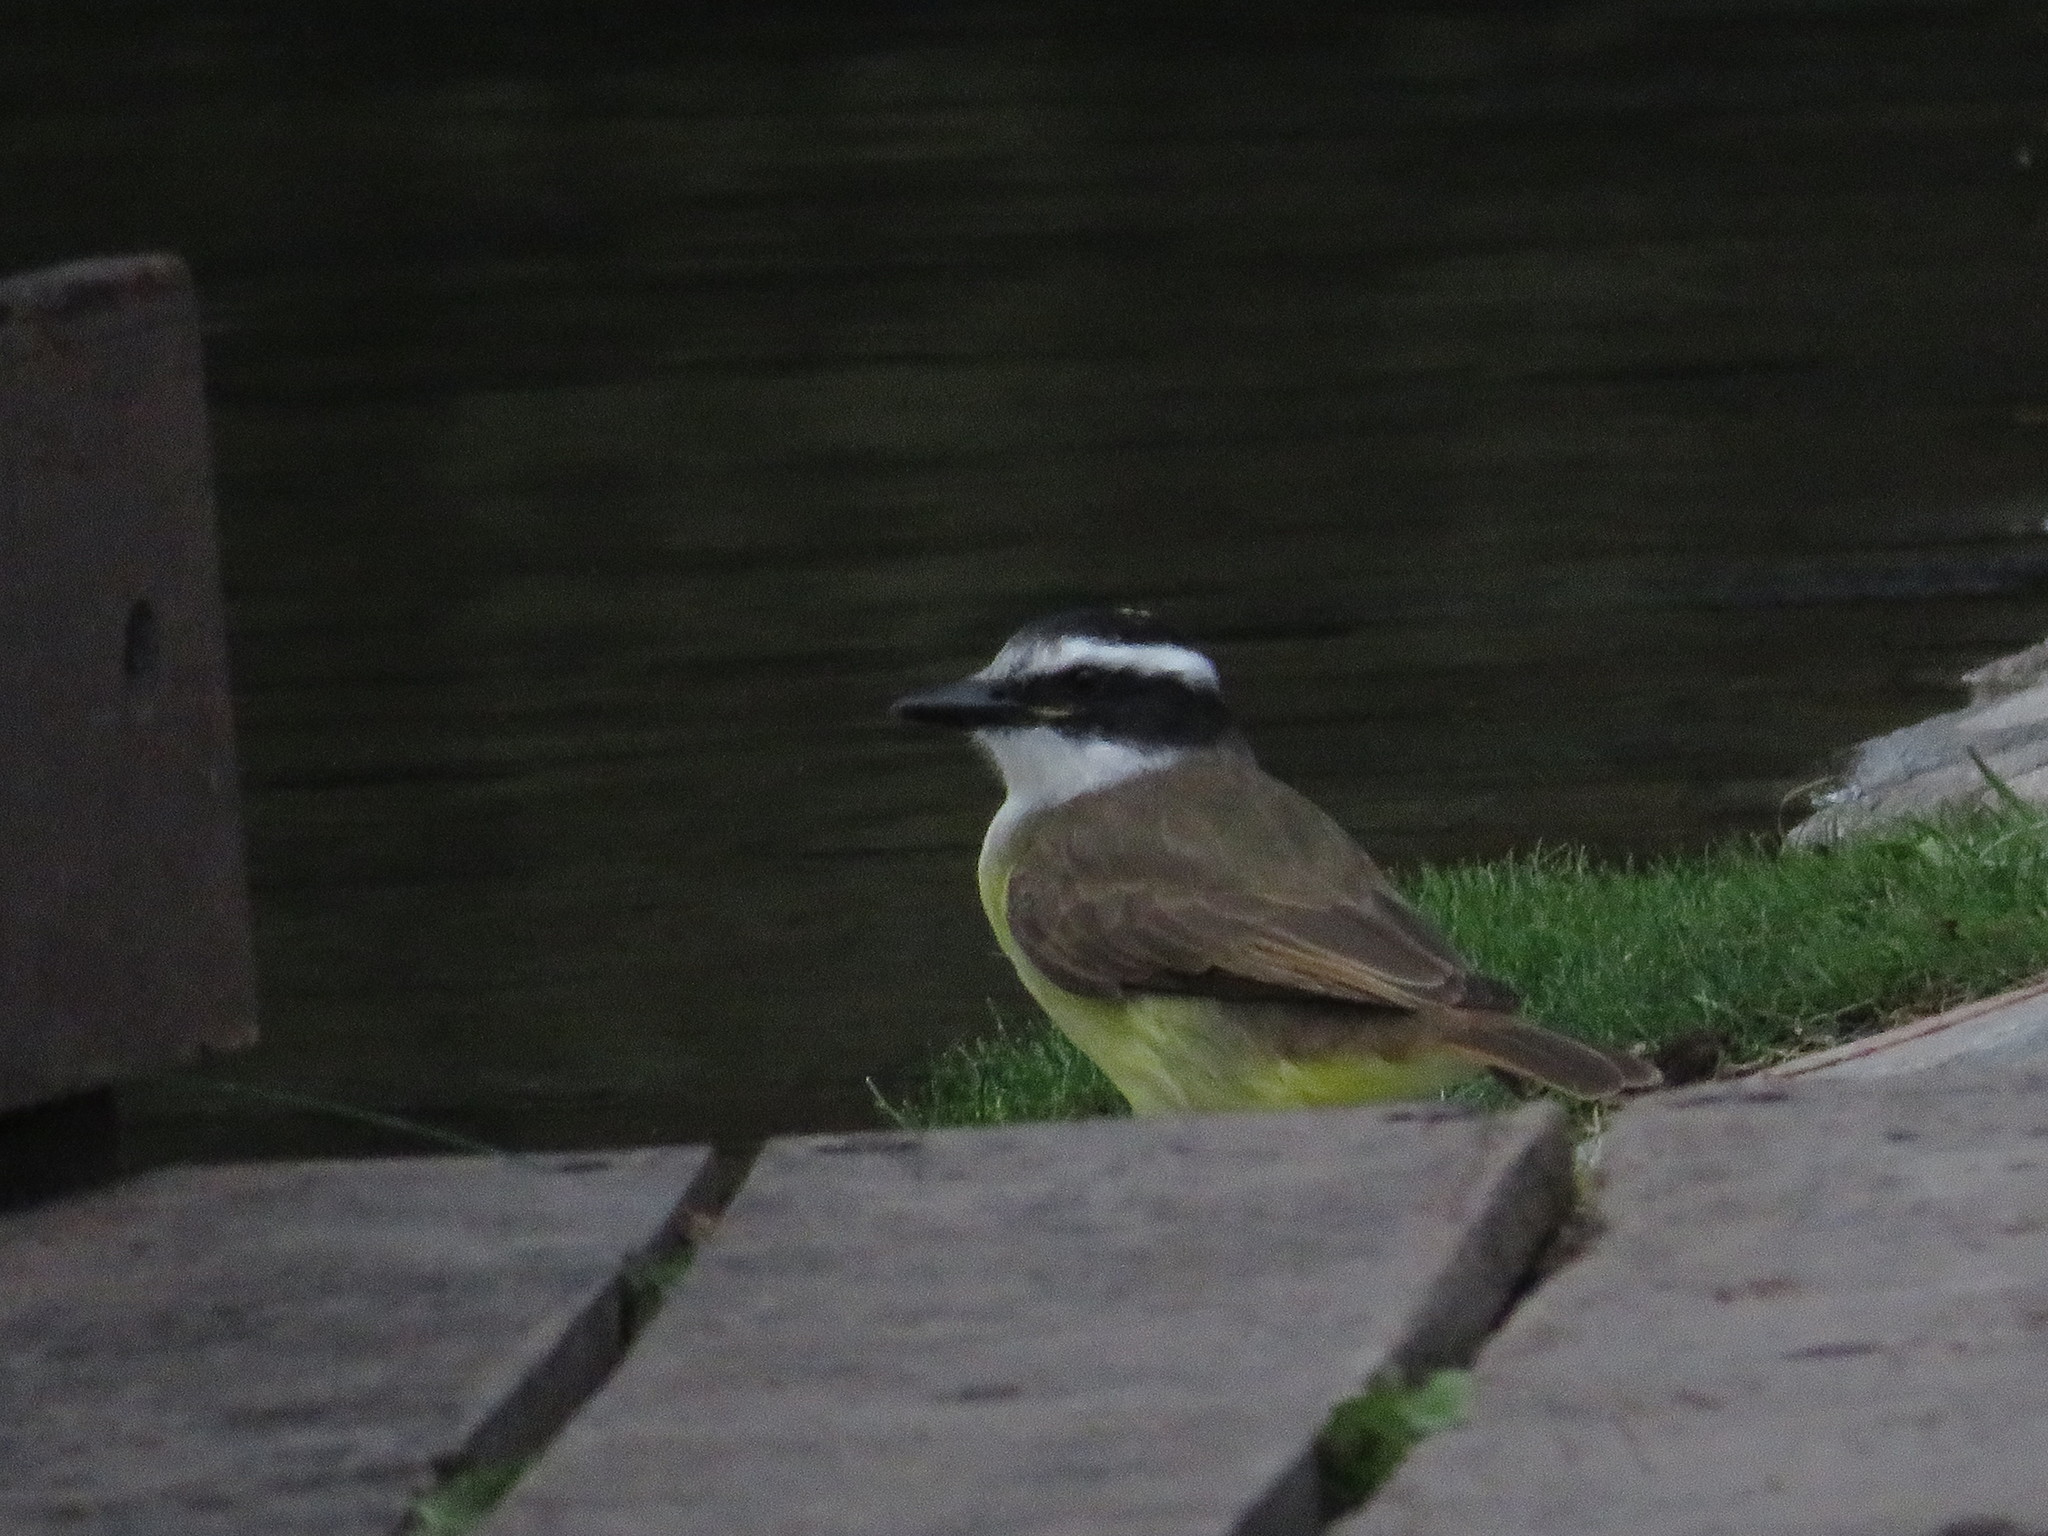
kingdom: Animalia
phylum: Chordata
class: Aves
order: Passeriformes
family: Tyrannidae
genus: Pitangus
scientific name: Pitangus sulphuratus
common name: Great kiskadee
